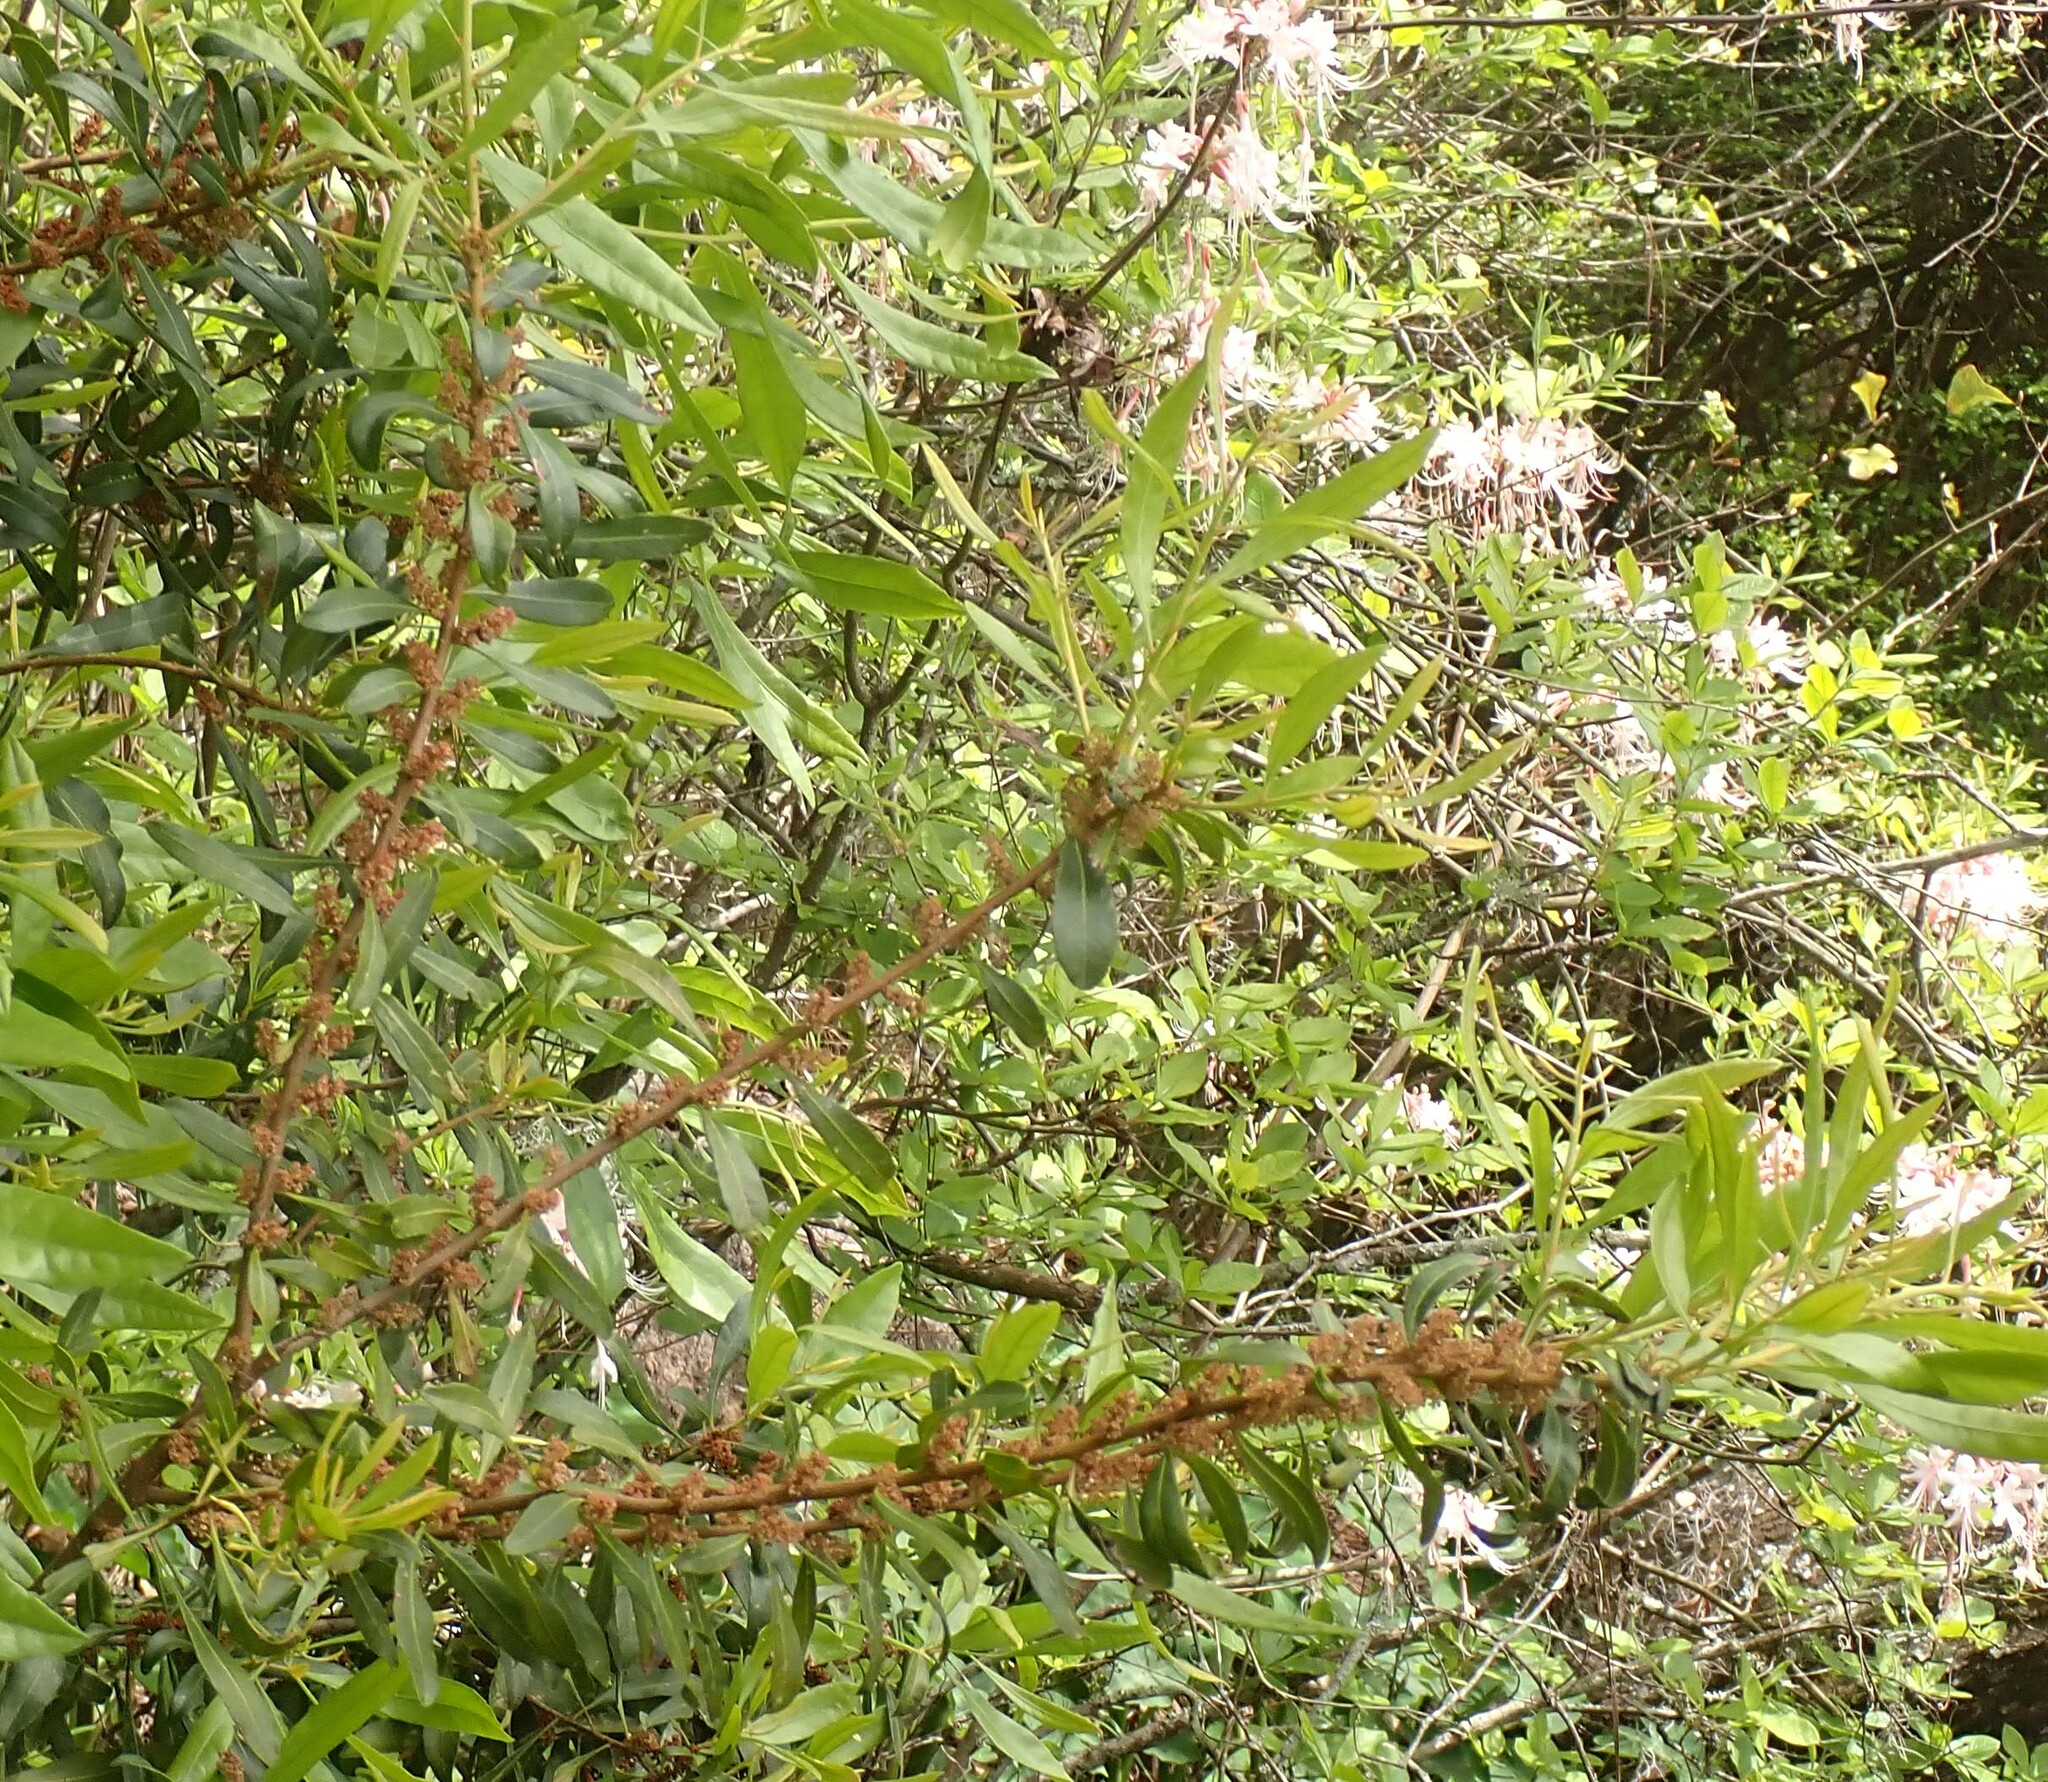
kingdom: Plantae
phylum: Tracheophyta
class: Magnoliopsida
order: Fagales
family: Myricaceae
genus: Morella
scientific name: Morella cerifera
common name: Wax myrtle
